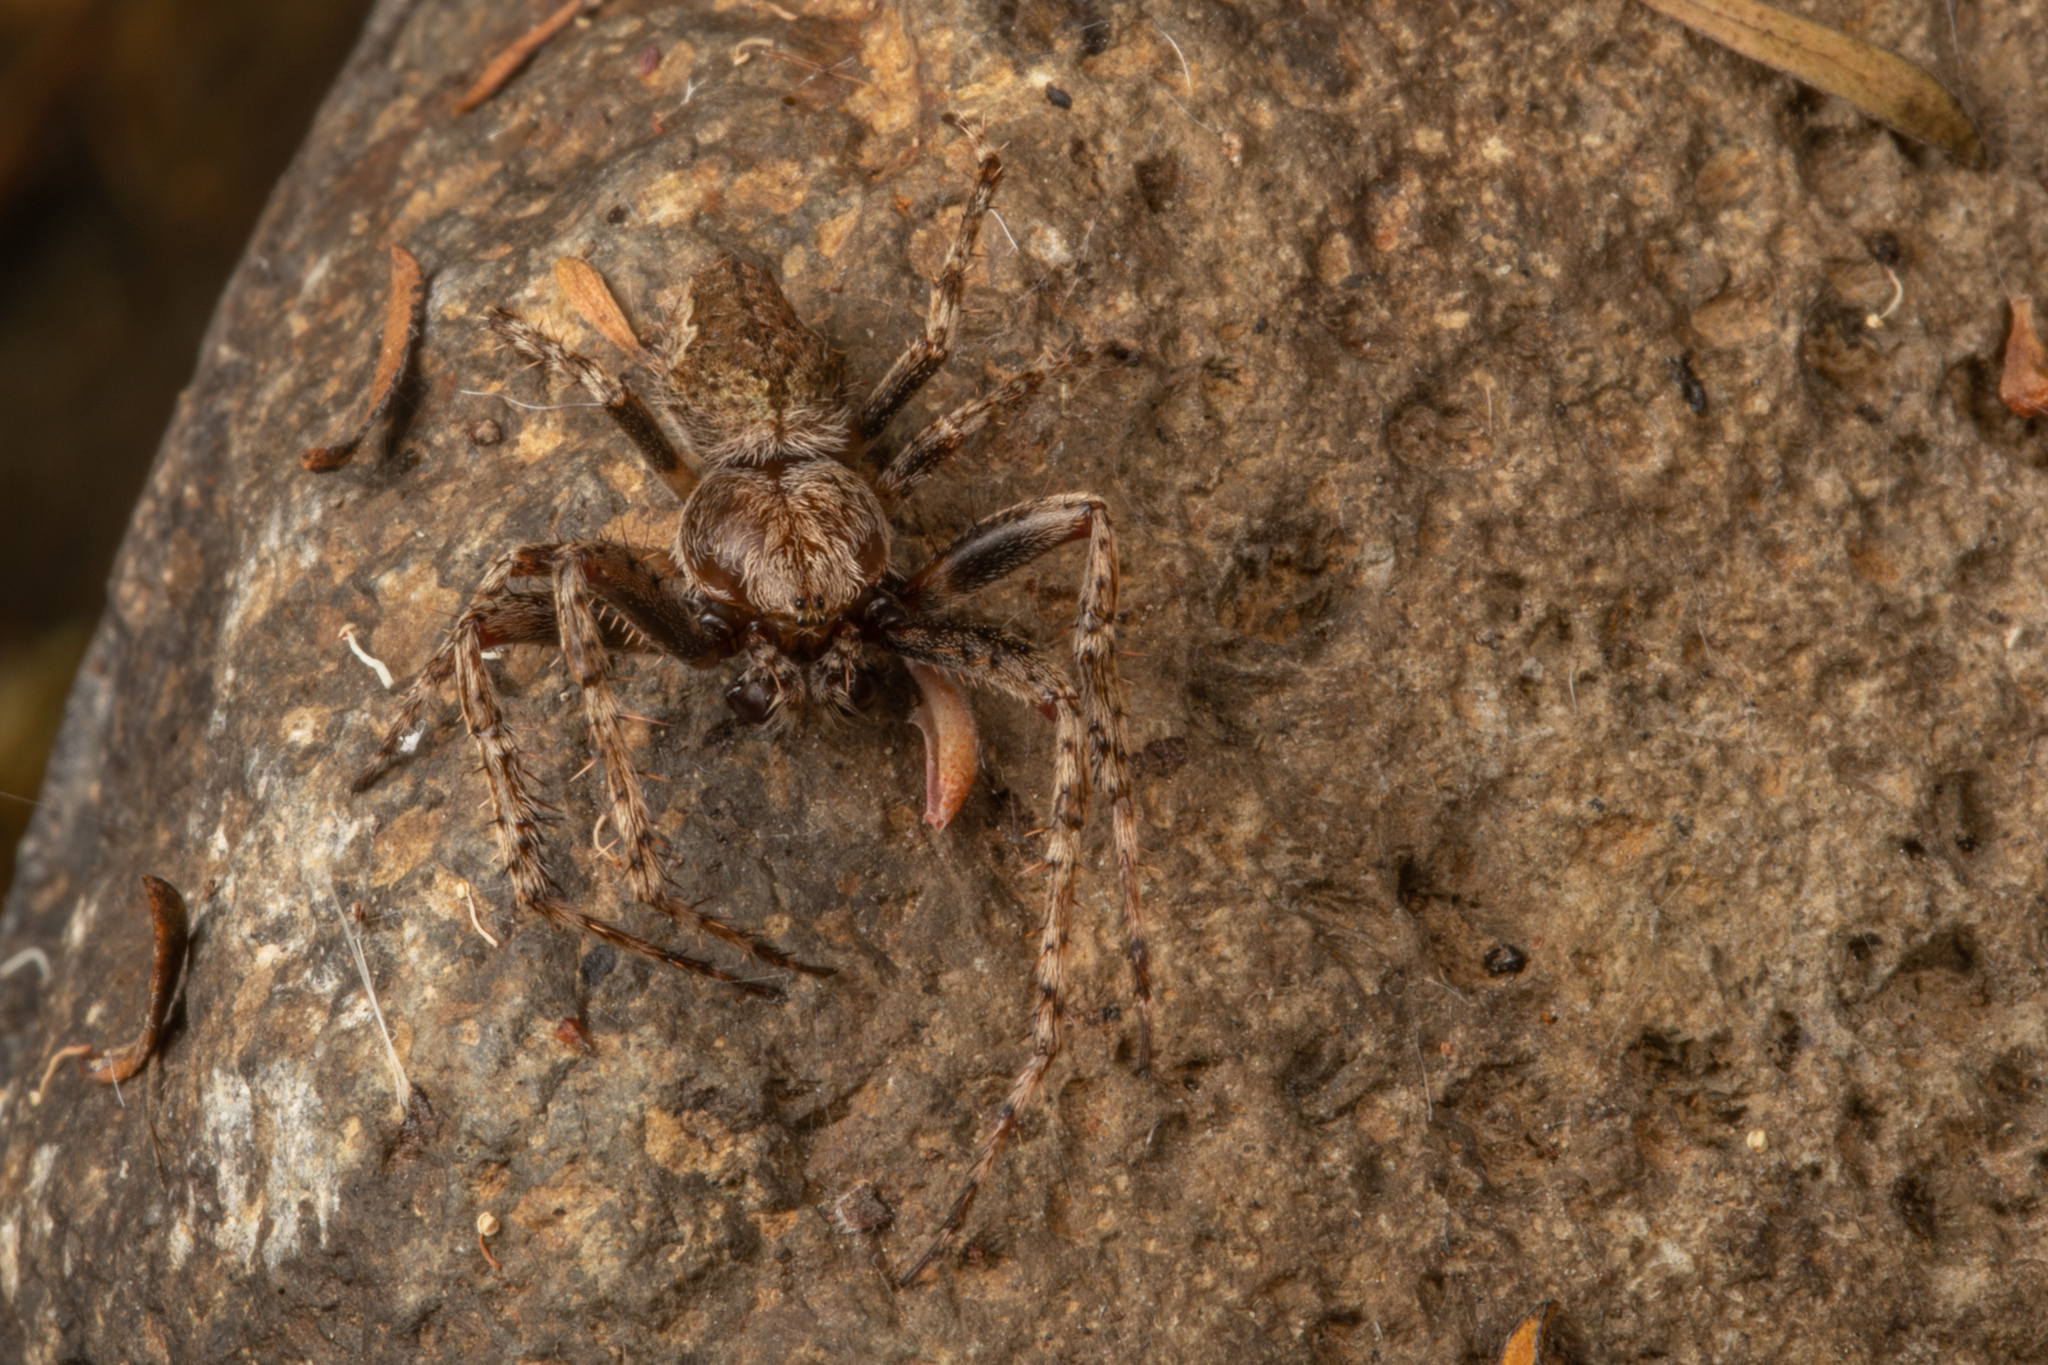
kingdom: Animalia
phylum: Arthropoda
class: Arachnida
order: Araneae
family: Araneidae
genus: Eriophora
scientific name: Eriophora pustulosa
